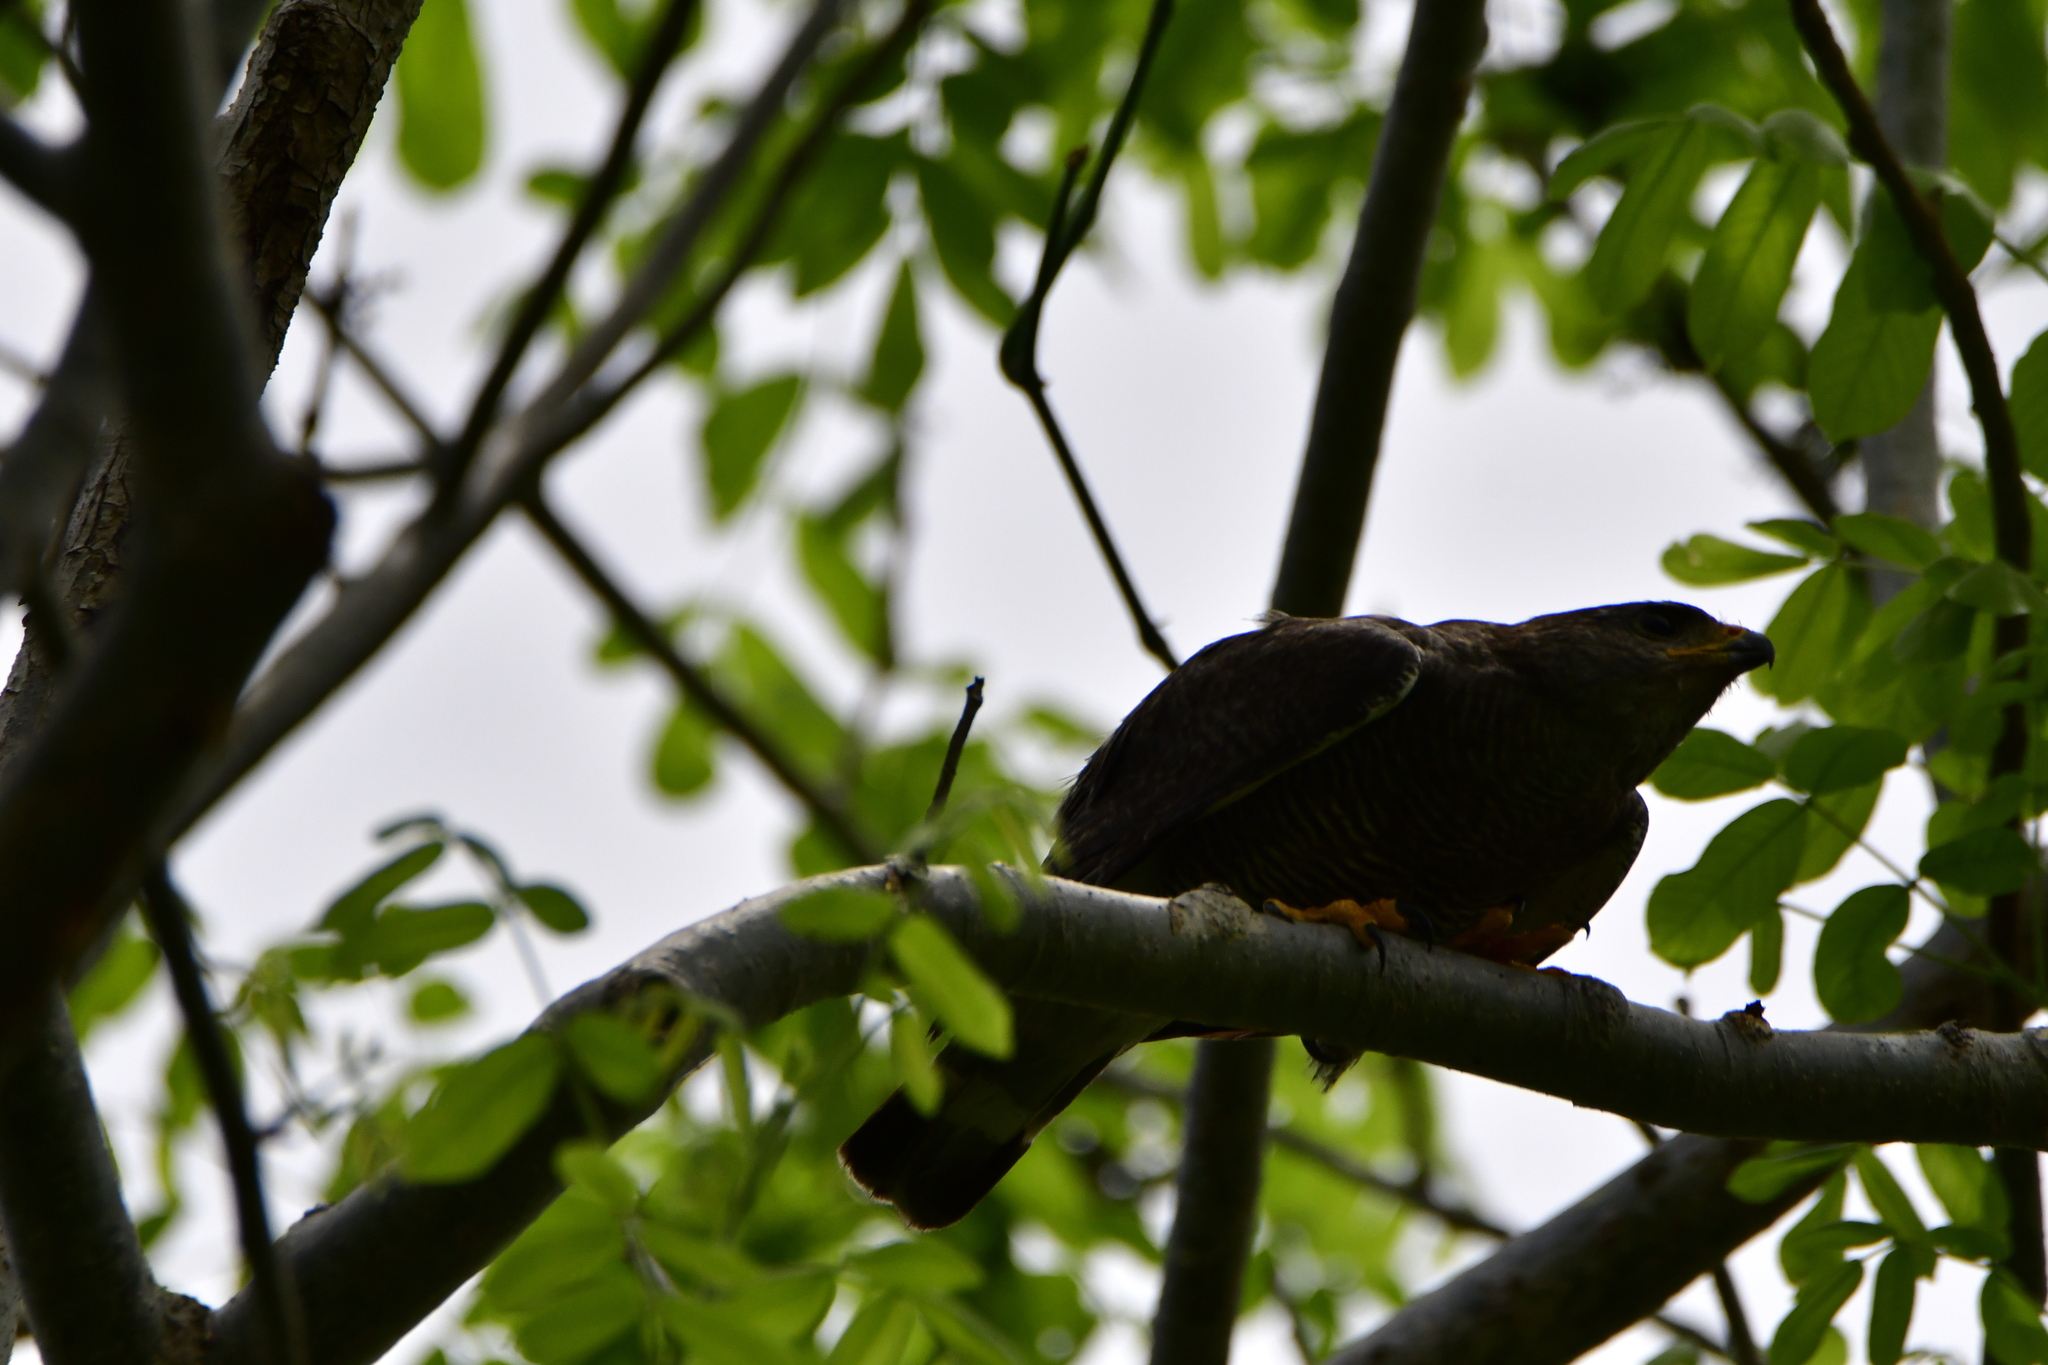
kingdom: Animalia
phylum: Chordata
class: Aves
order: Accipitriformes
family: Accipitridae
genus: Buteo
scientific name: Buteo nitidus
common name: Grey-lined hawk
